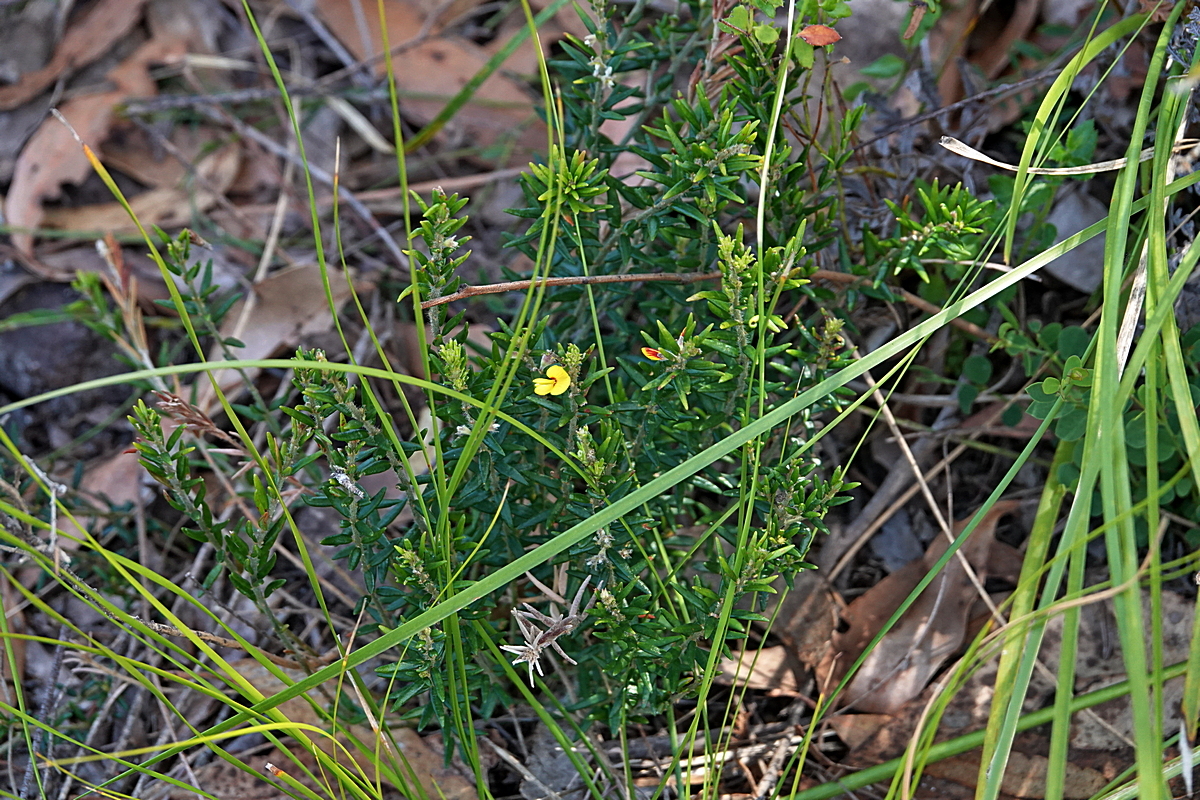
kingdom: Plantae
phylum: Tracheophyta
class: Magnoliopsida
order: Fabales
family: Fabaceae
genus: Aotus
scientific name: Aotus ericoides
